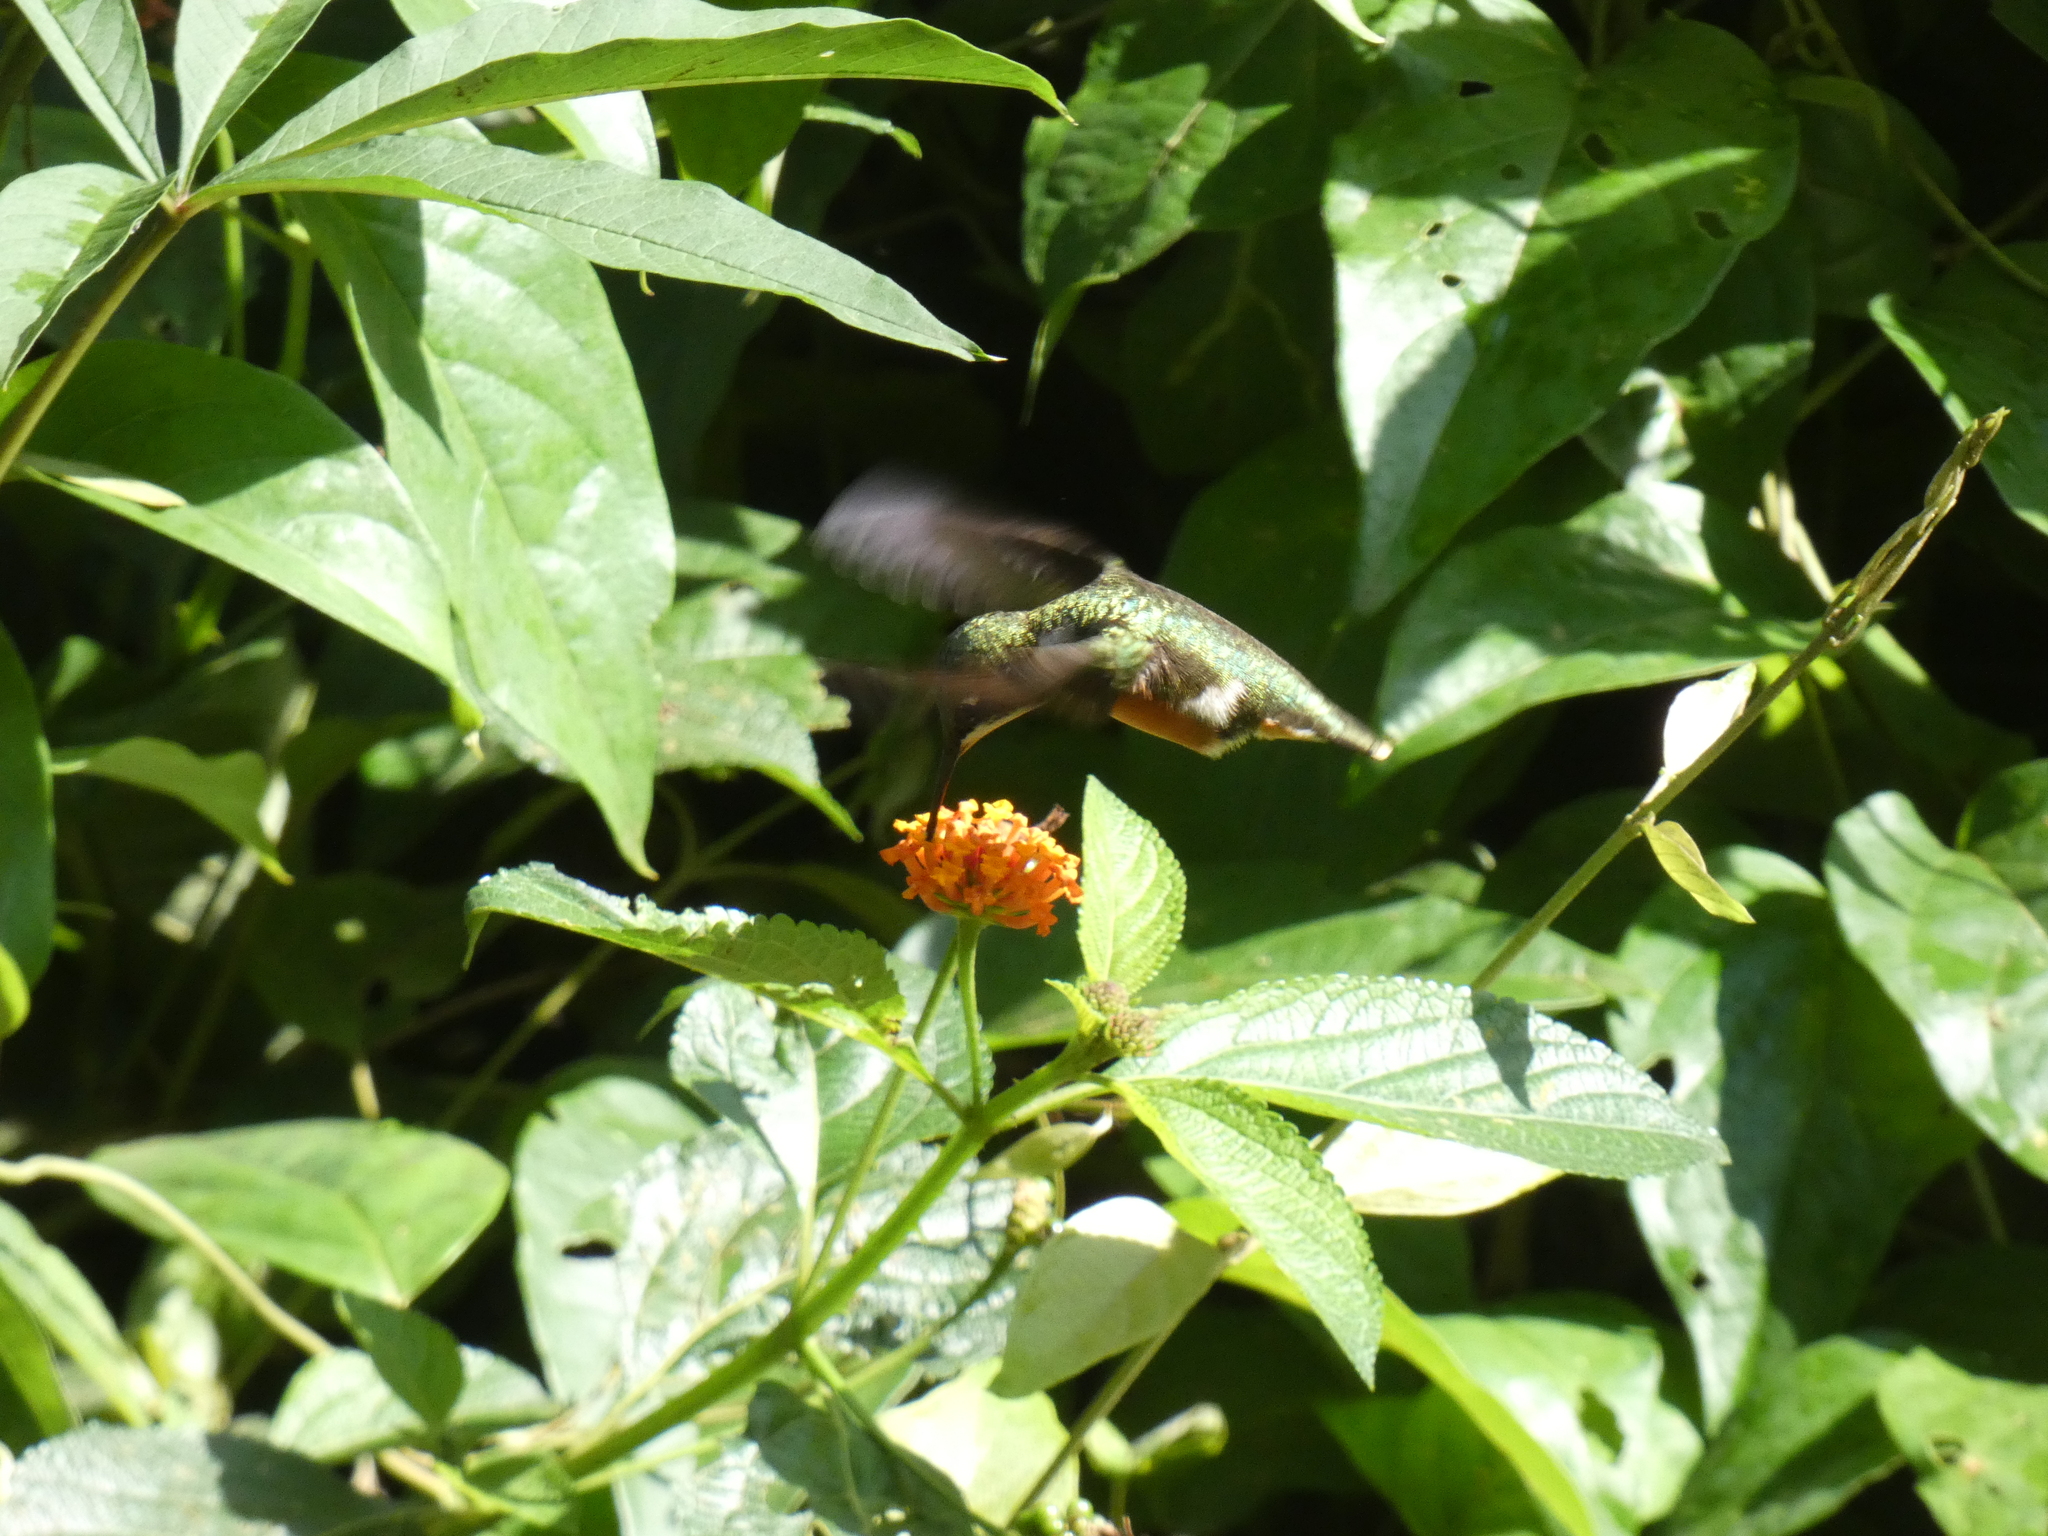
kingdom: Animalia
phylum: Chordata
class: Aves
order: Apodiformes
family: Trochilidae
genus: Calliphlox
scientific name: Calliphlox amethystina
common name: Amethyst woodstar
